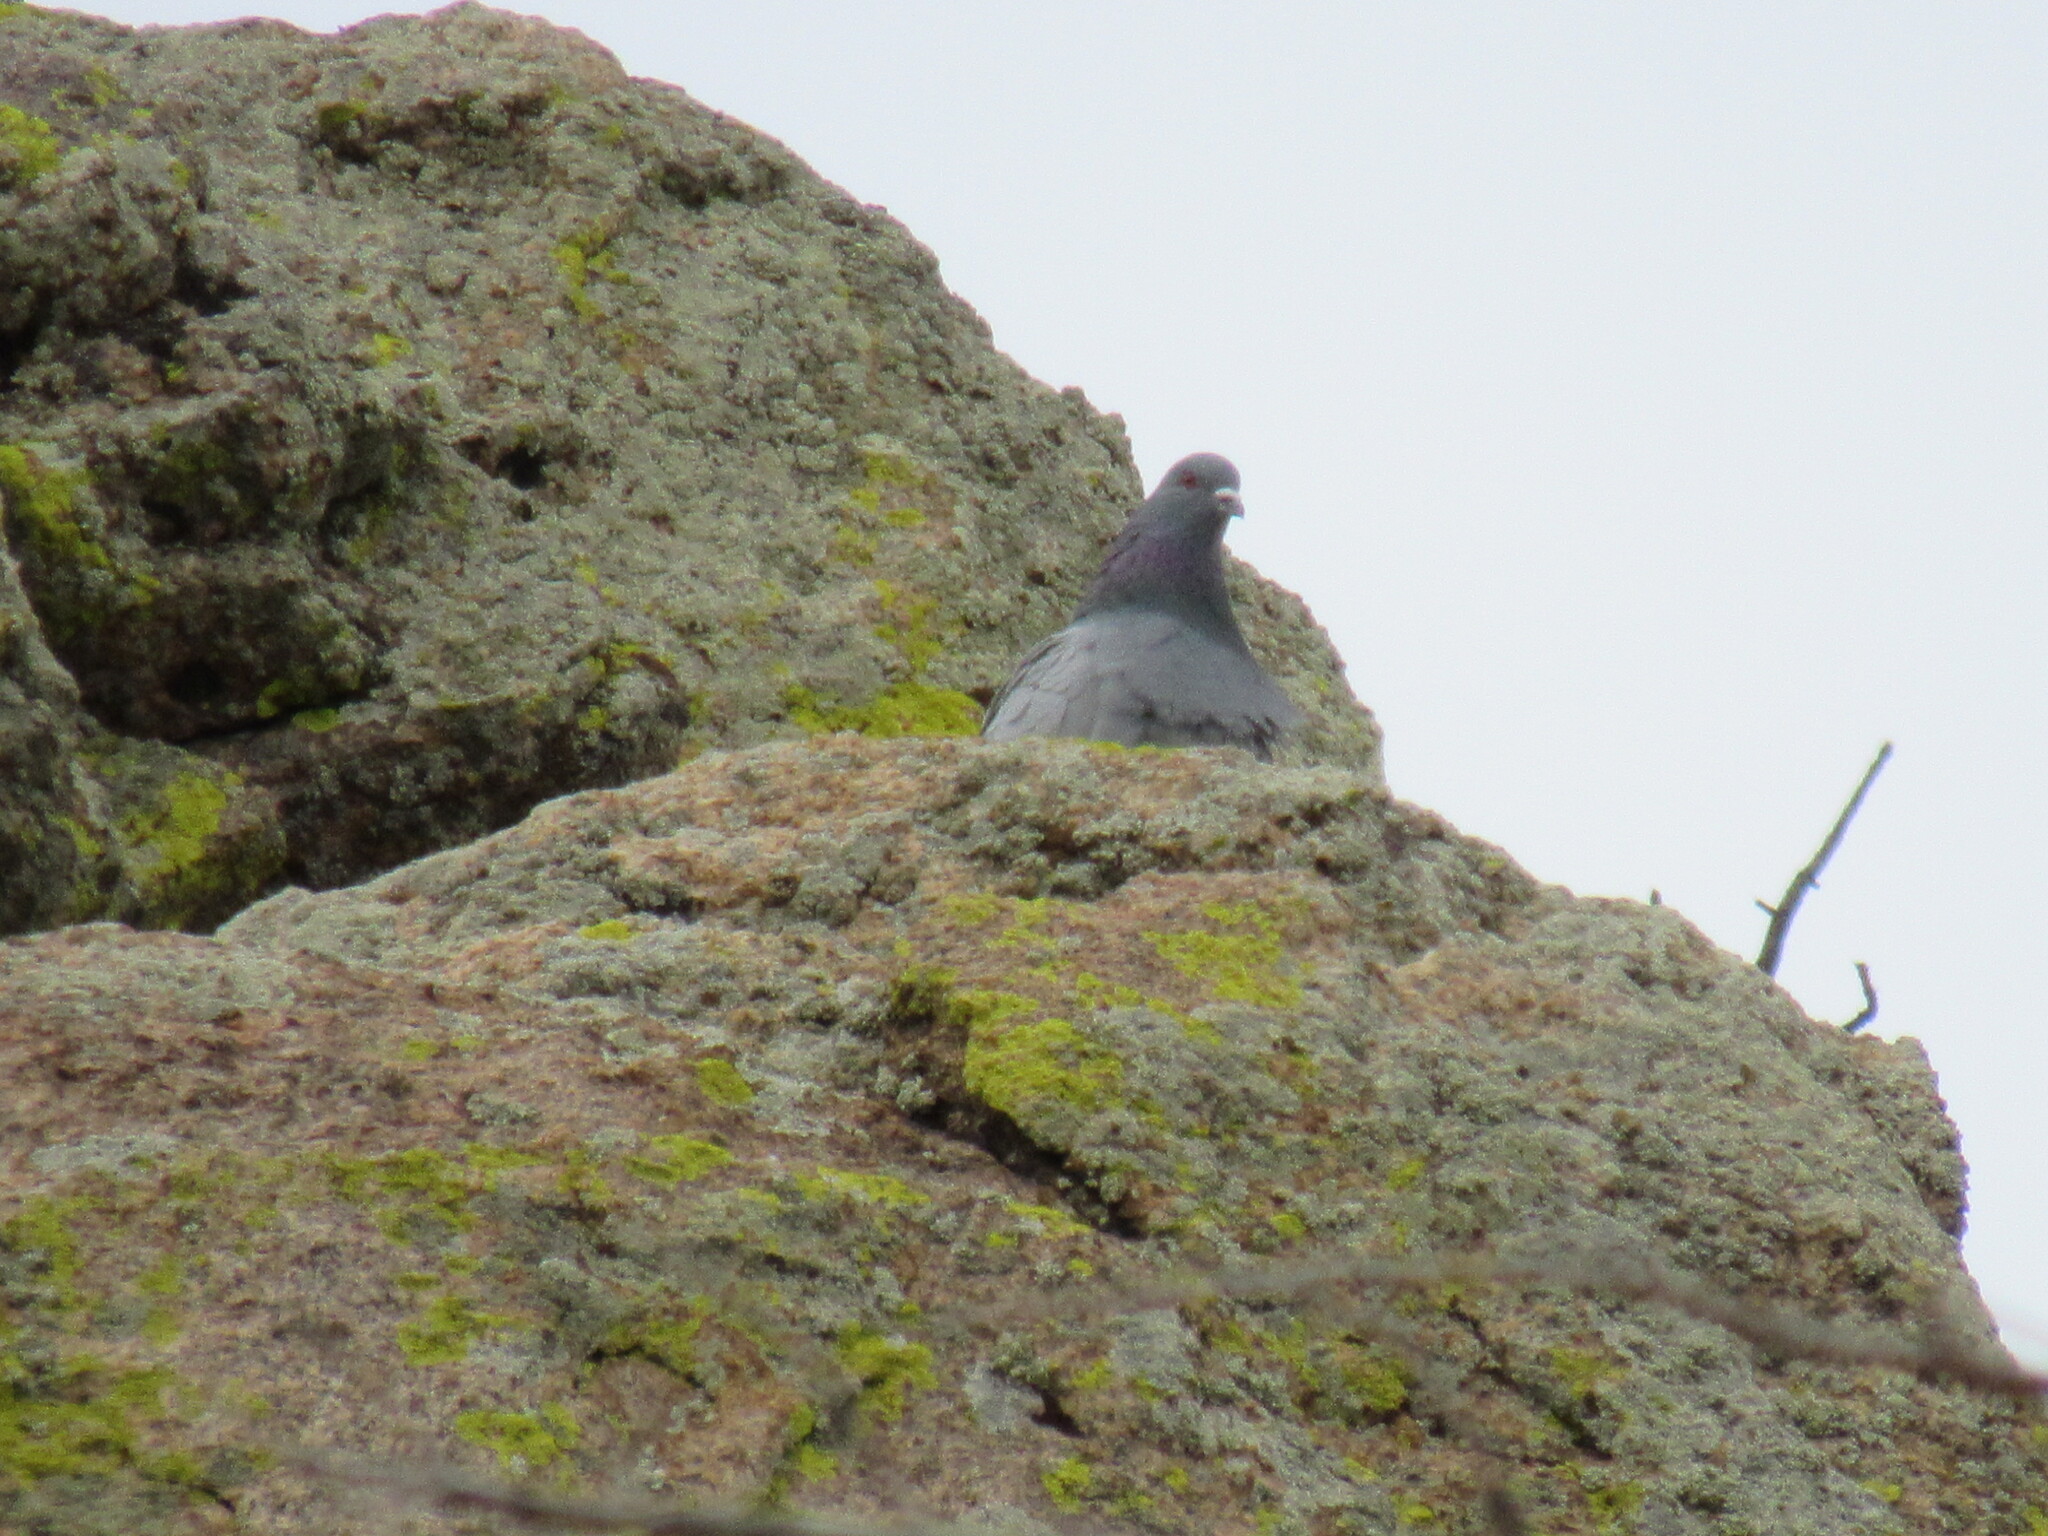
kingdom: Animalia
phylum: Chordata
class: Aves
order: Columbiformes
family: Columbidae
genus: Columba
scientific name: Columba livia
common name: Rock pigeon
